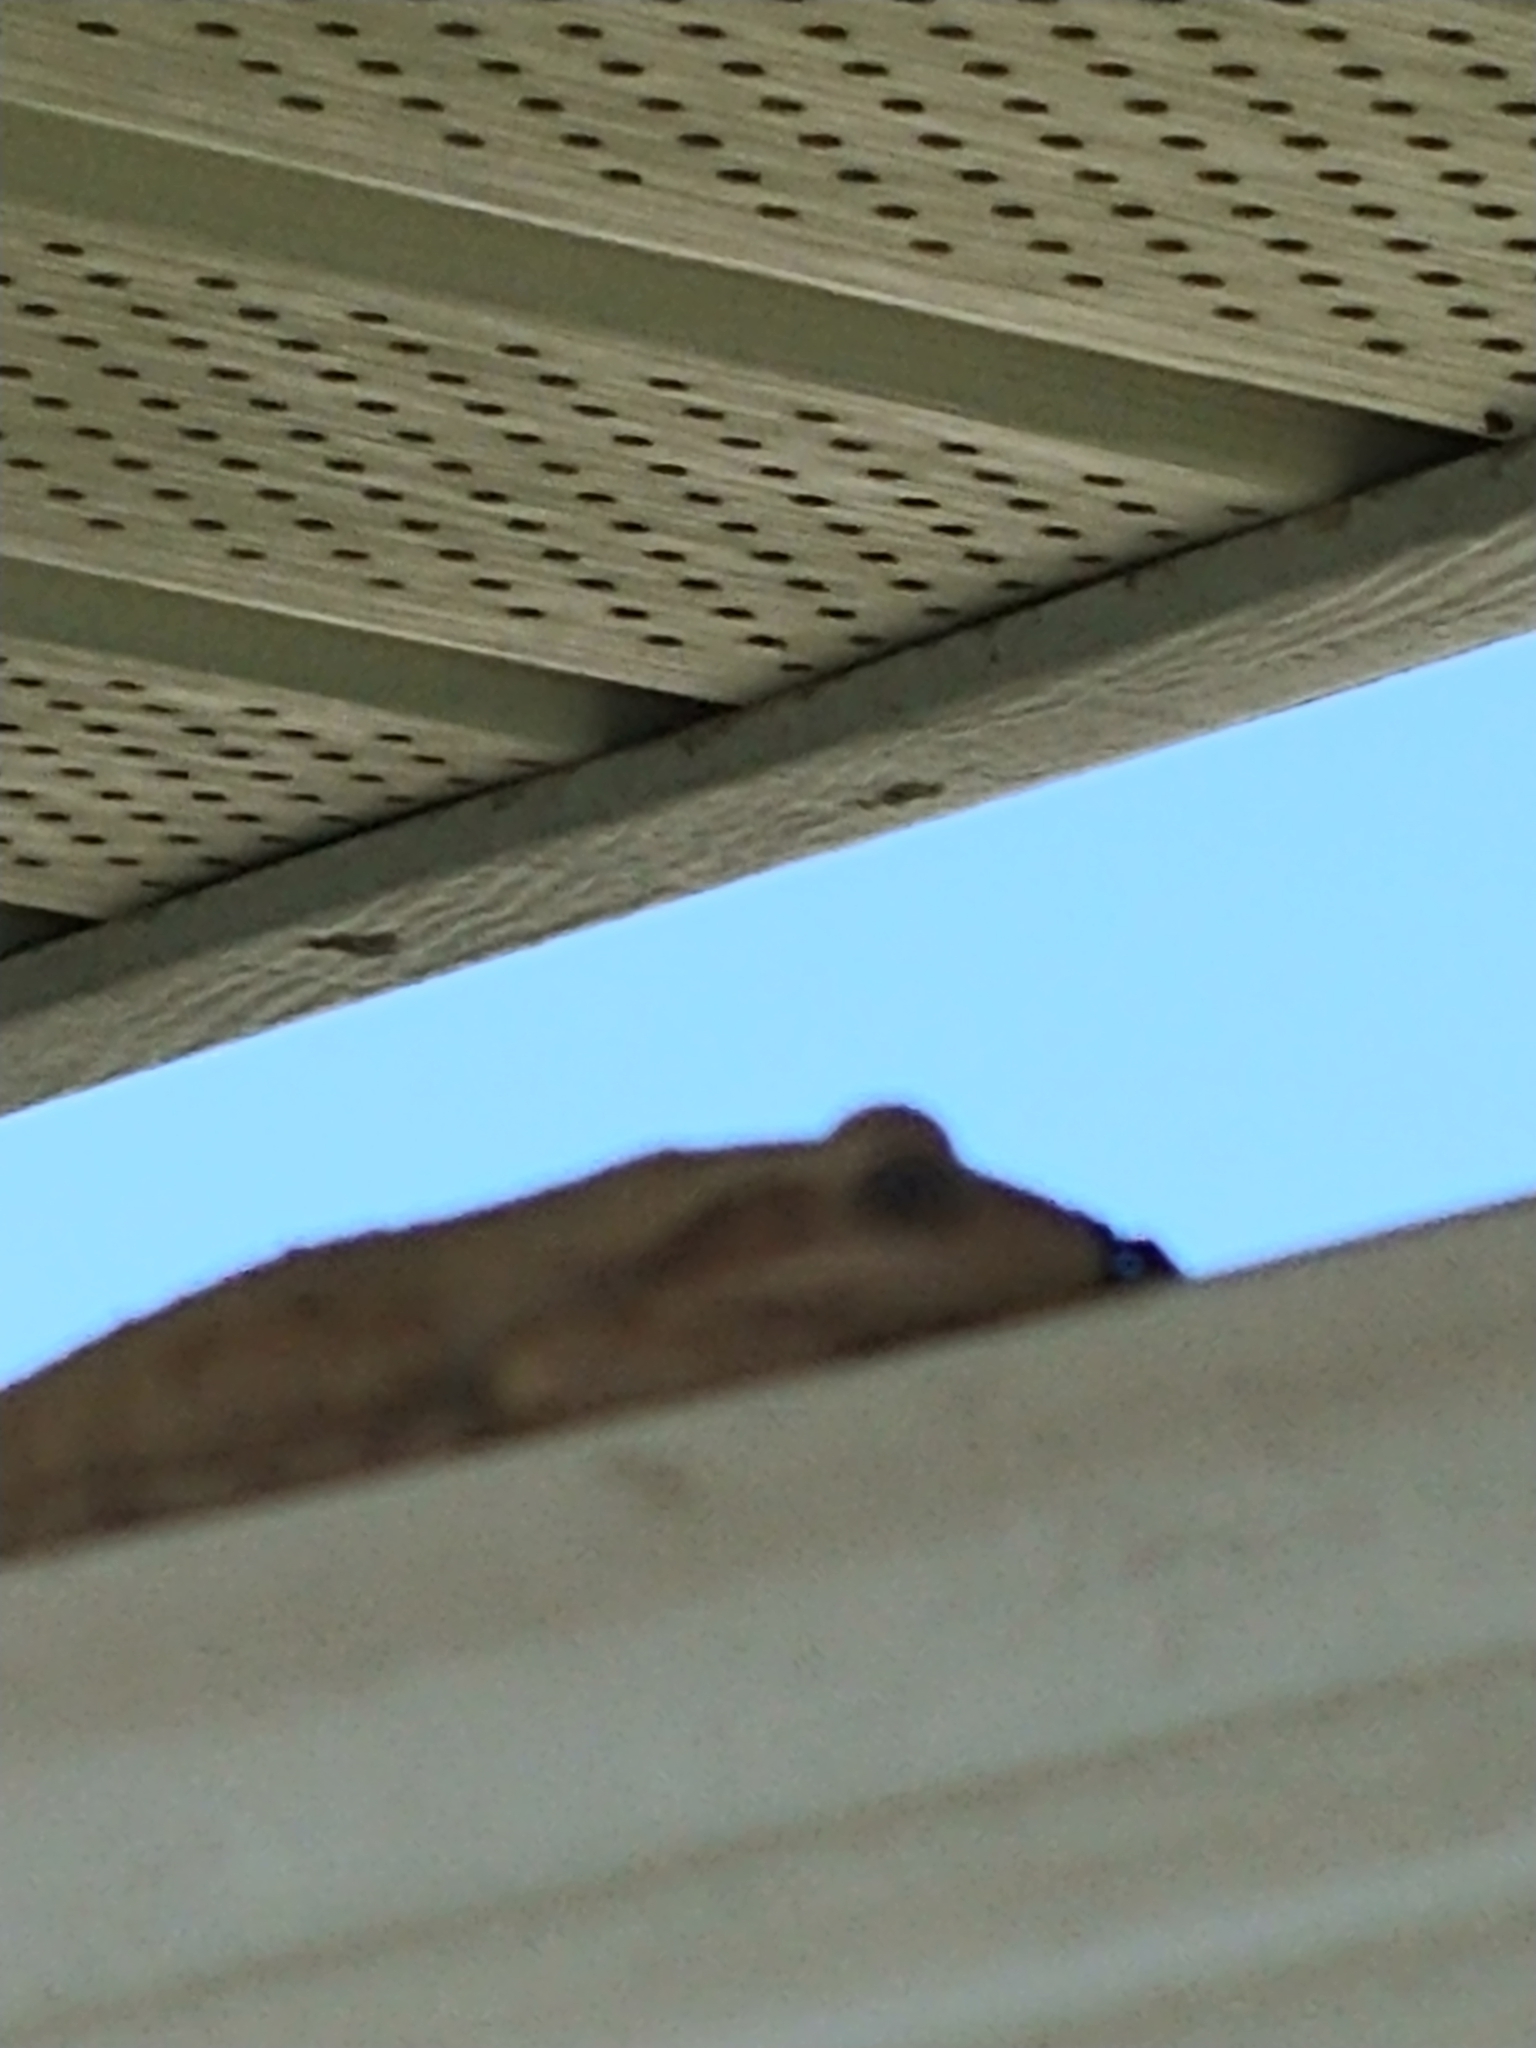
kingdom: Animalia
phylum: Chordata
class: Amphibia
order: Anura
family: Hylidae
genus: Osteopilus
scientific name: Osteopilus septentrionalis
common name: Cuban treefrog
